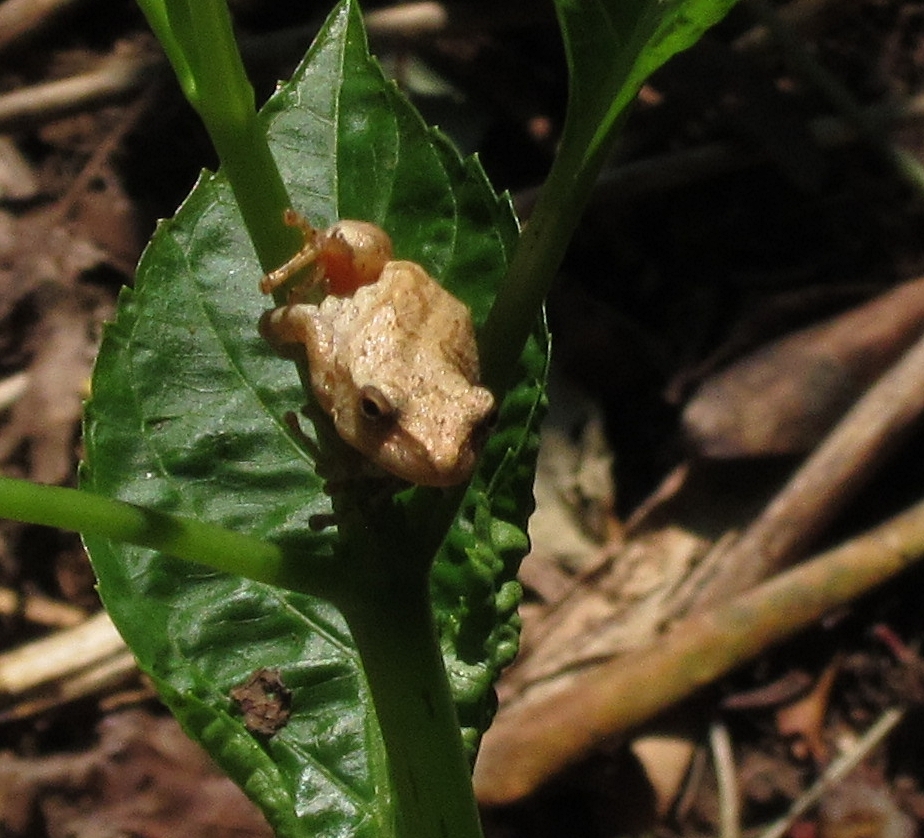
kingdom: Animalia
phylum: Chordata
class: Amphibia
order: Anura
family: Hylidae
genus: Pseudacris
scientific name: Pseudacris crucifer
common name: Spring peeper
